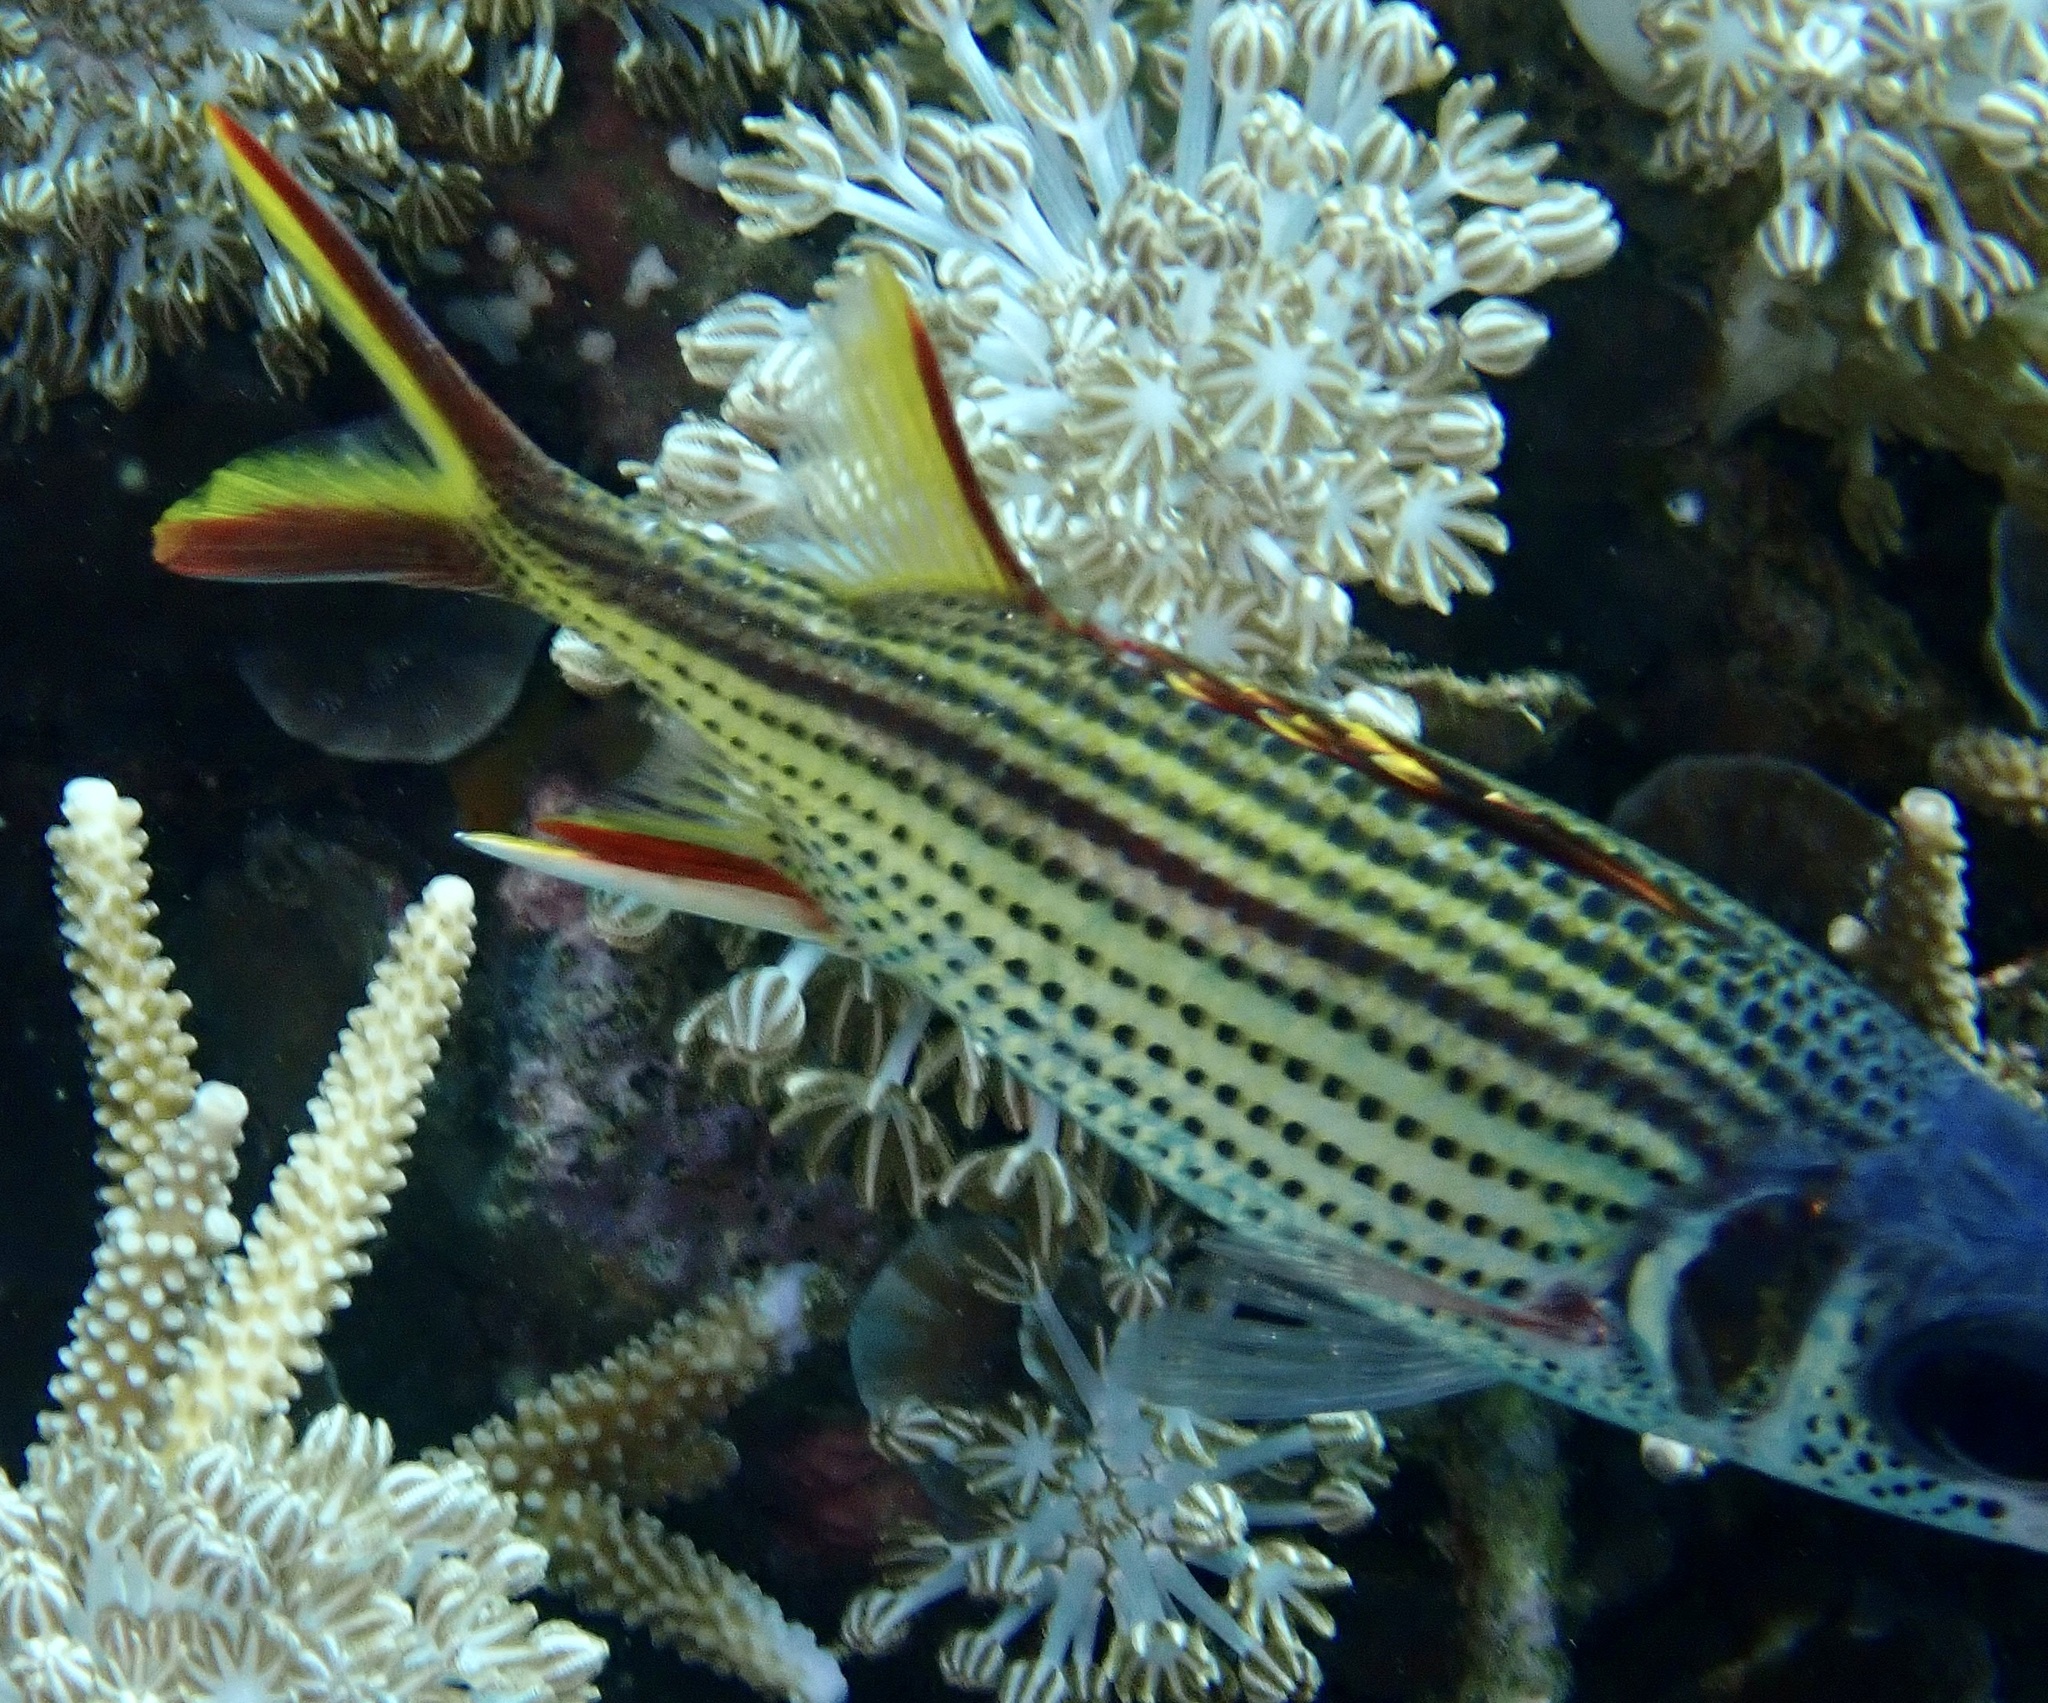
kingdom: Animalia
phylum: Chordata
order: Beryciformes
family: Holocentridae
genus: Neoniphon
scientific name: Neoniphon sammara
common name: Sammara squirrelfish
